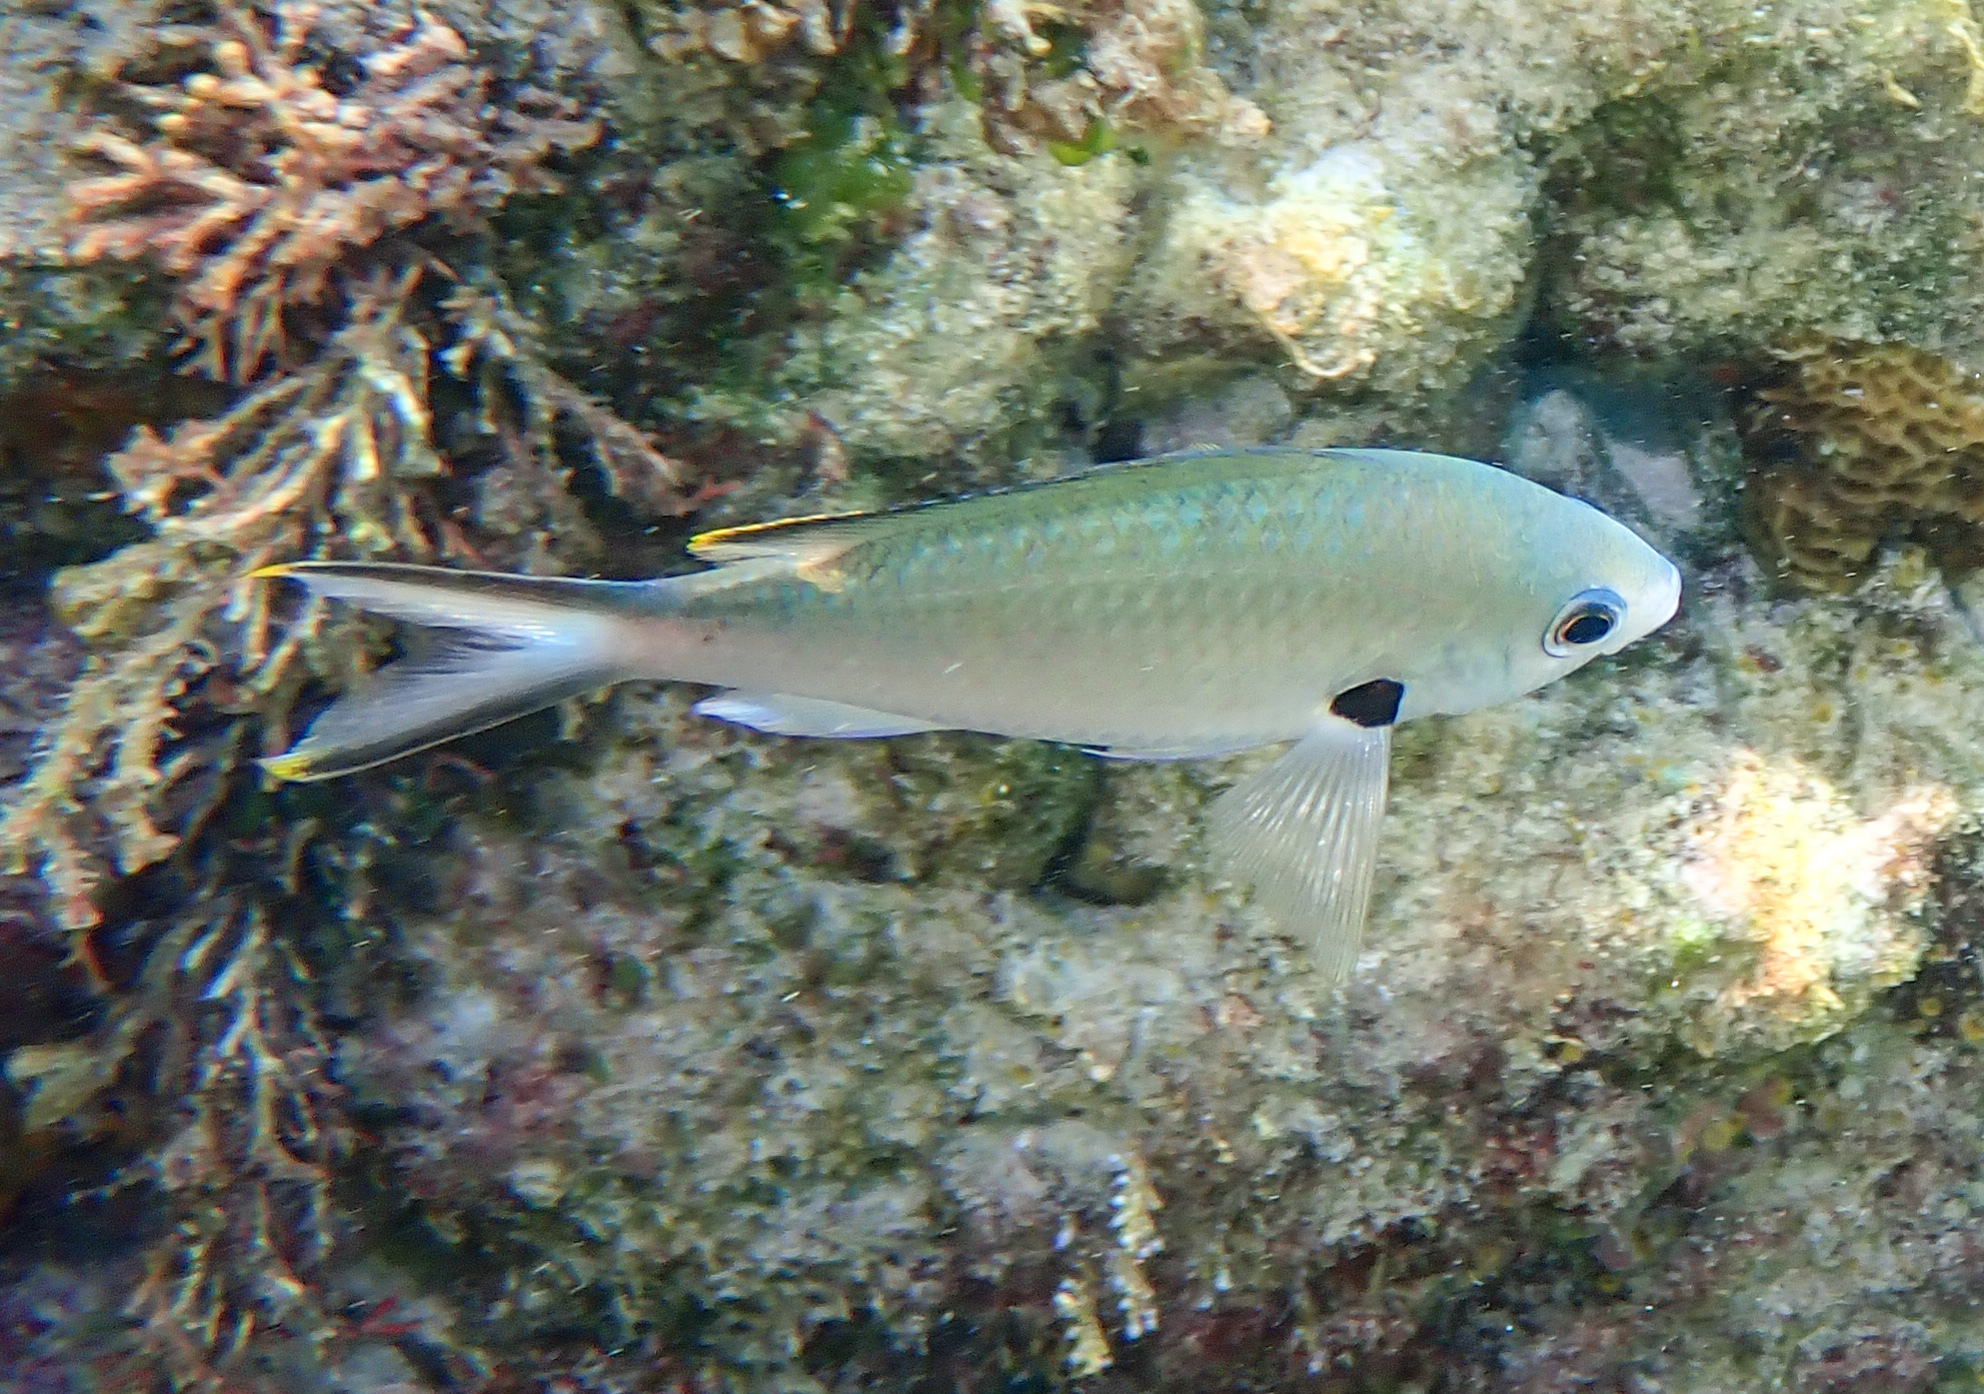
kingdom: Animalia
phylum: Chordata
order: Perciformes
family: Pomacentridae
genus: Chromis
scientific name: Chromis multilineata
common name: Brown chromis
